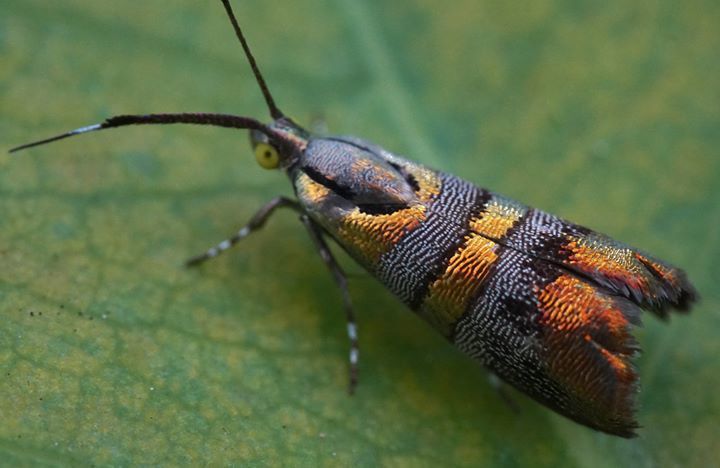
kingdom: Animalia
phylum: Arthropoda
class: Insecta
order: Lepidoptera
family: Choreutidae
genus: Tortyra
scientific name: Tortyra slossonia
